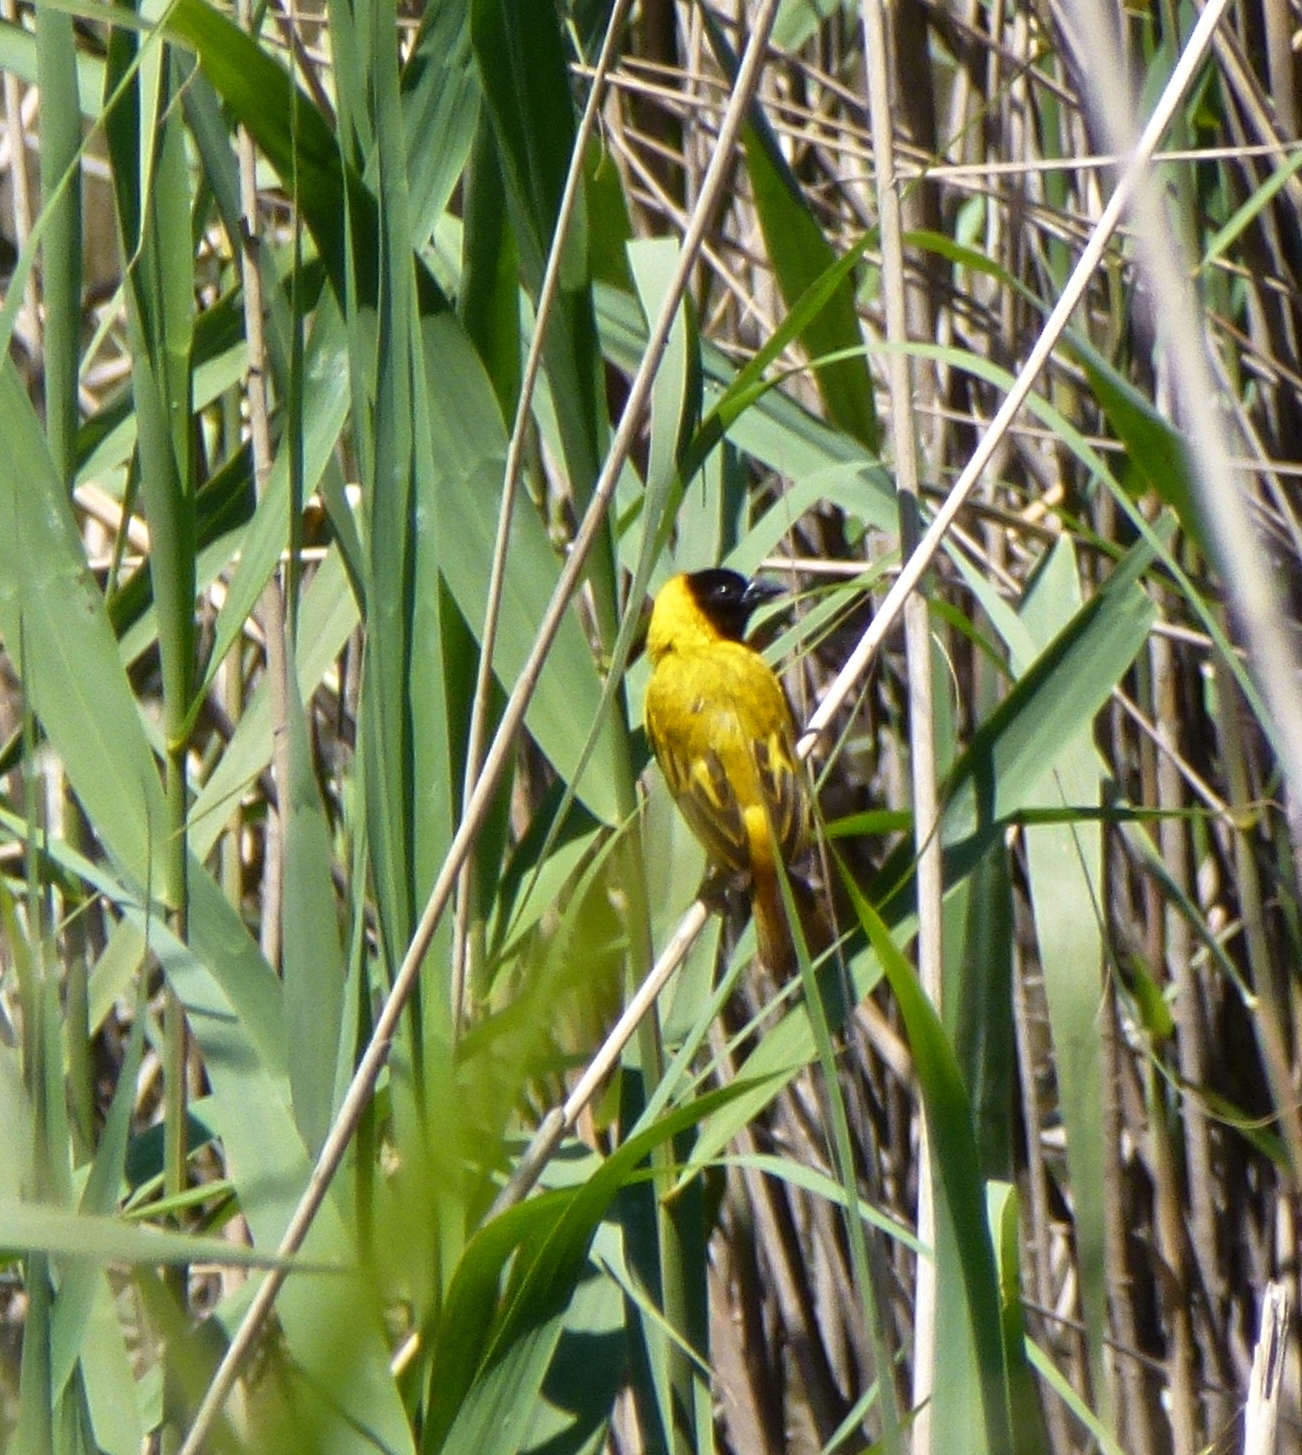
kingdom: Animalia
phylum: Chordata
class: Aves
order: Passeriformes
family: Ploceidae
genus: Ploceus
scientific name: Ploceus melanocephalus
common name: Black-headed weaver
